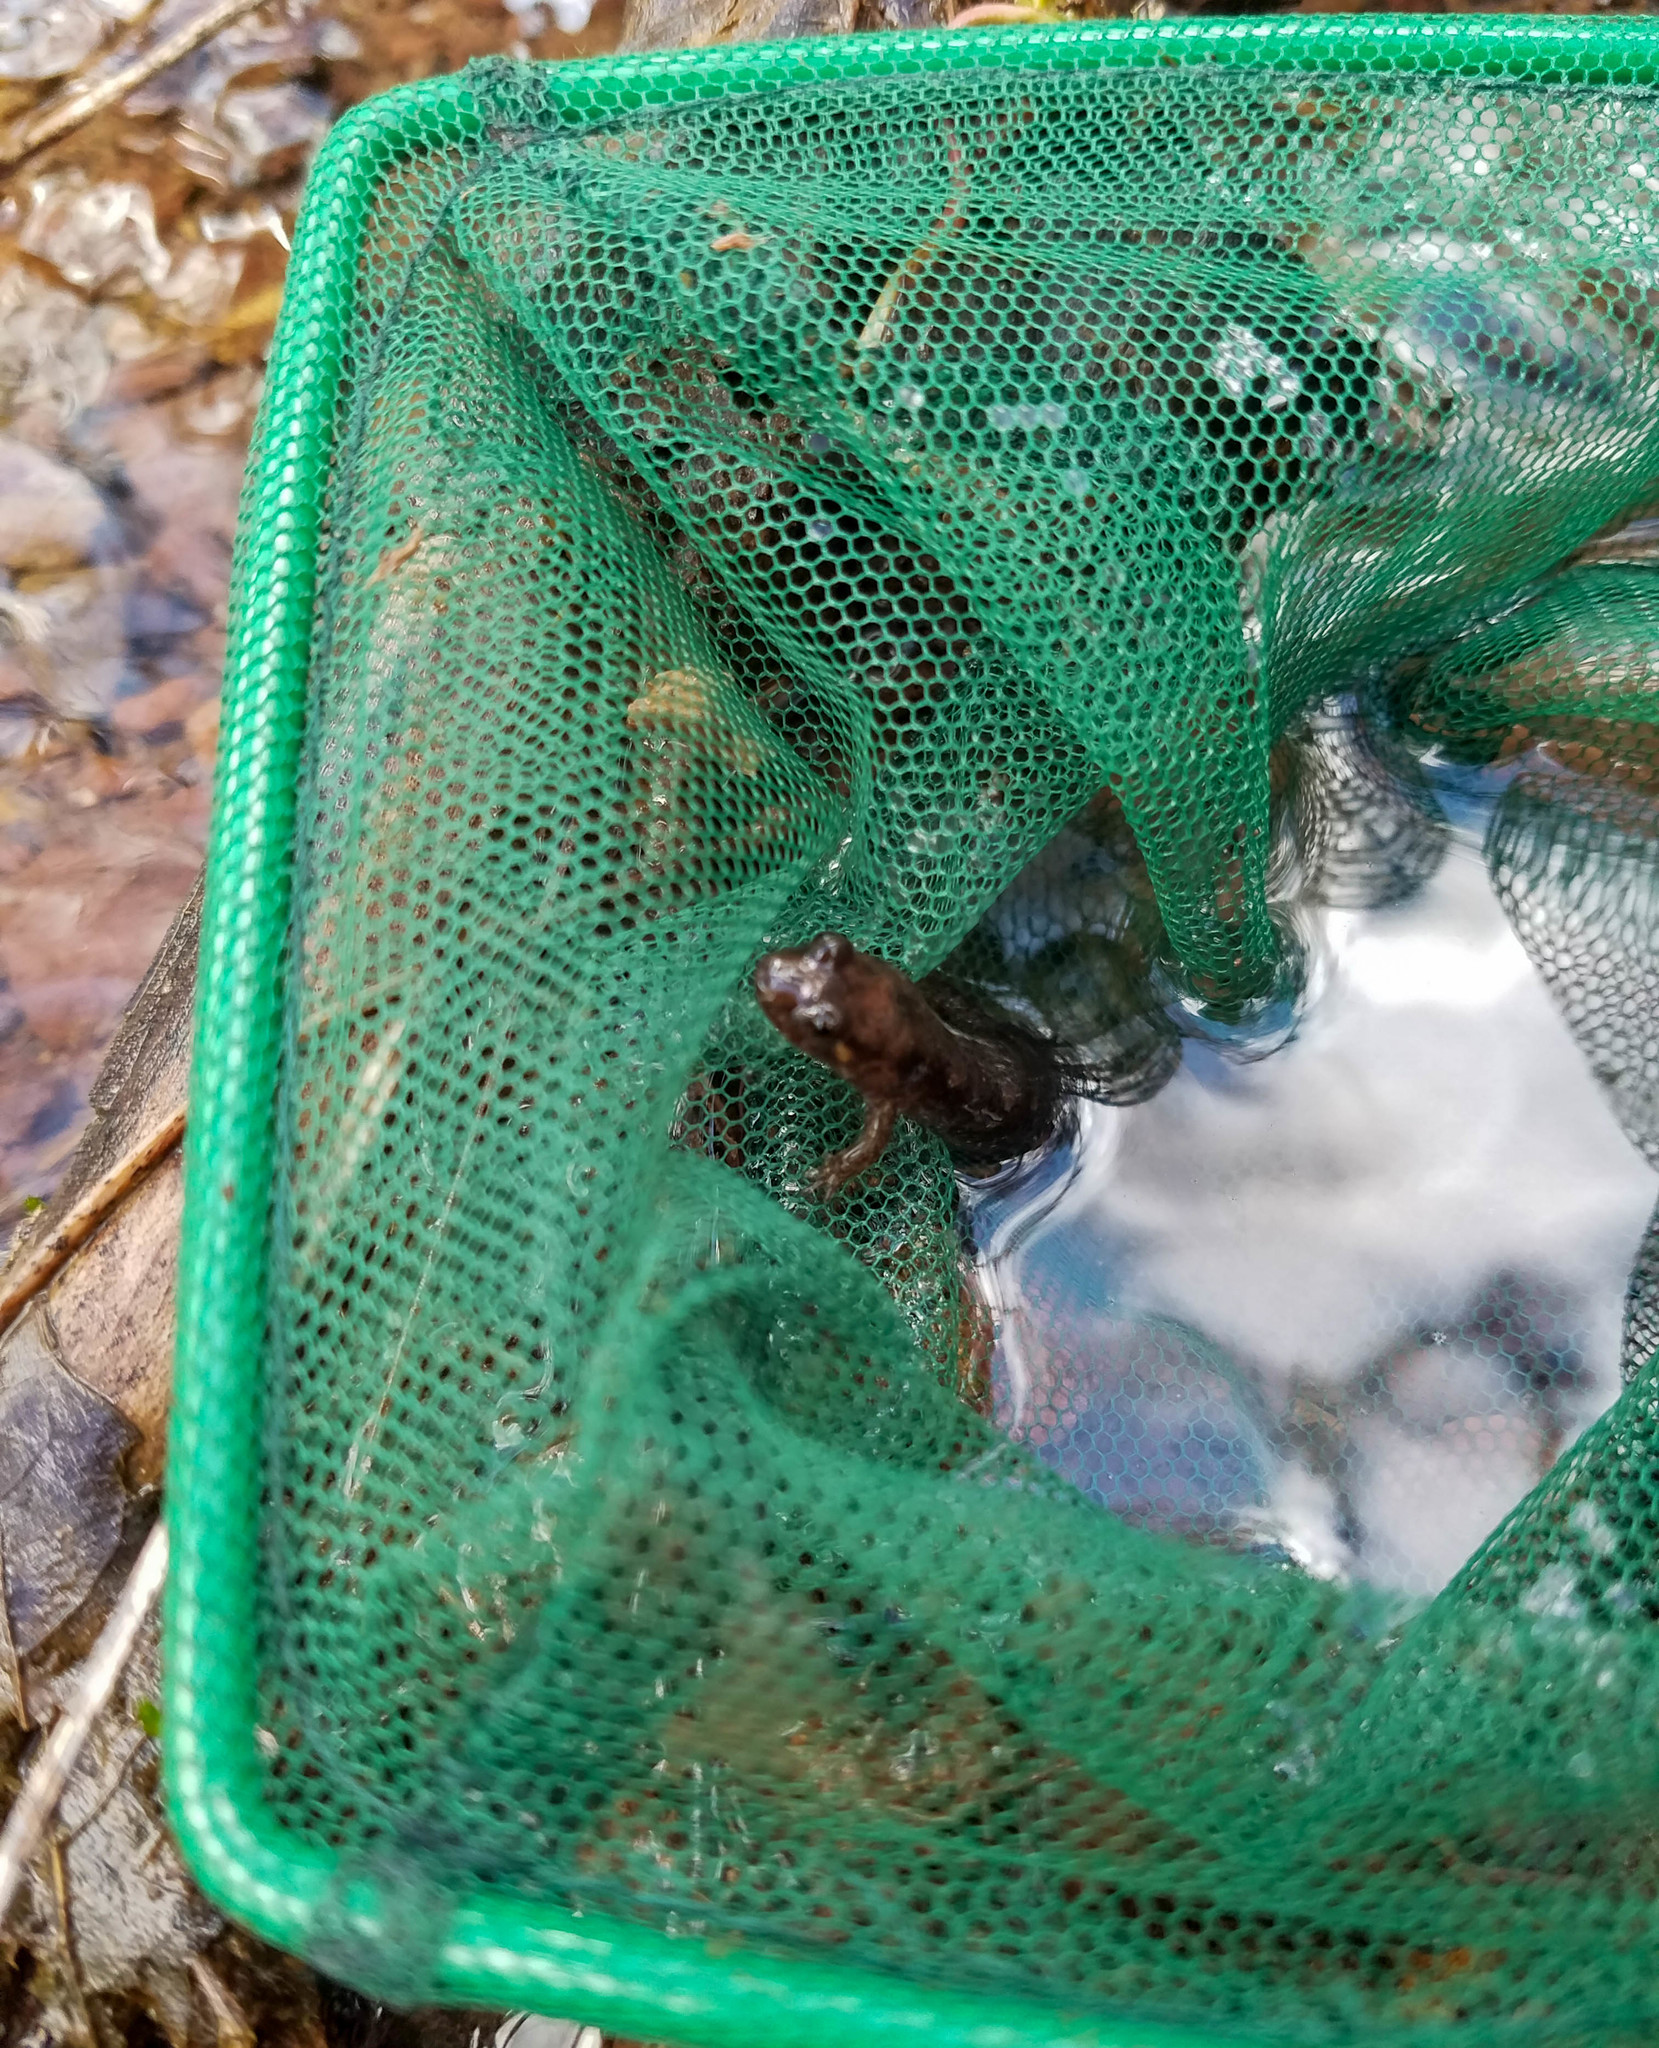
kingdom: Animalia
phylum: Chordata
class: Amphibia
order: Caudata
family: Plethodontidae
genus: Desmognathus
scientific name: Desmognathus monticola
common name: Seal salamander
